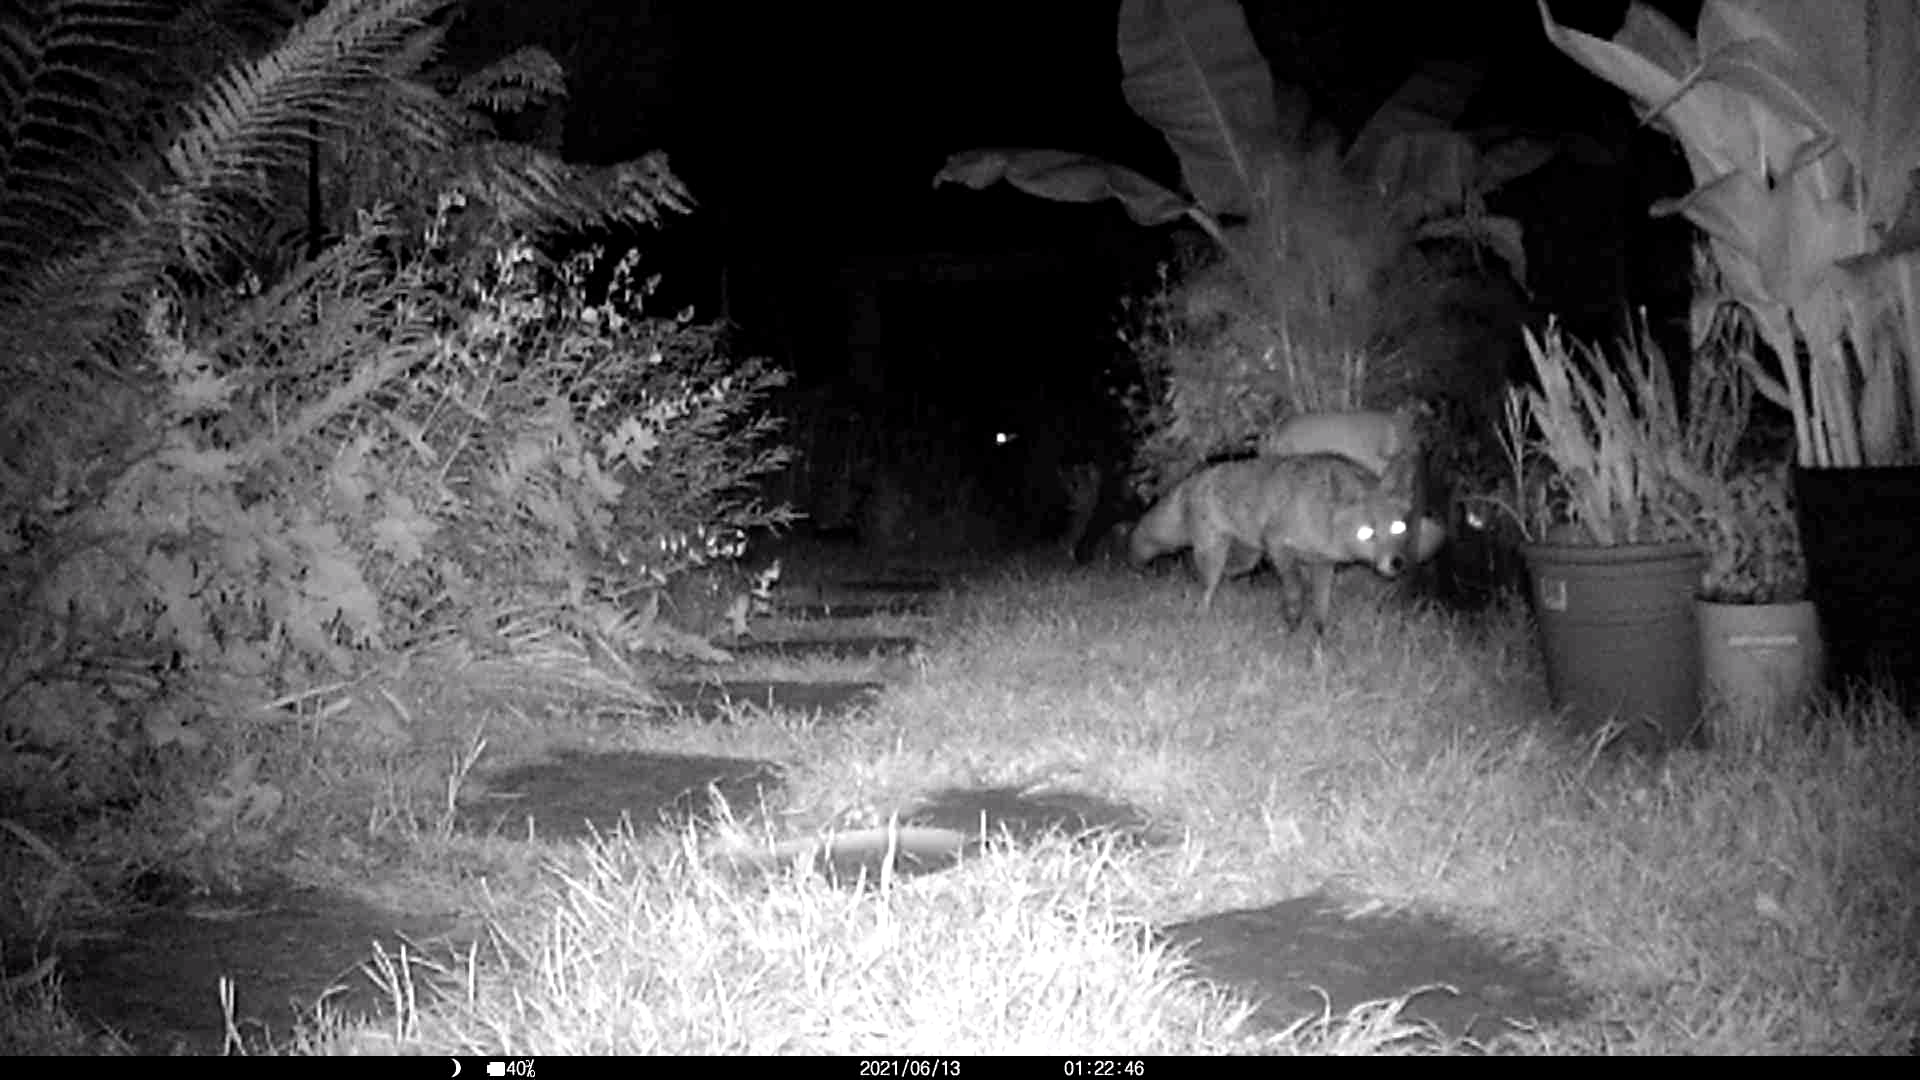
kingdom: Animalia
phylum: Chordata
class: Mammalia
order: Carnivora
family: Canidae
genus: Vulpes
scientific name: Vulpes vulpes
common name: Red fox
